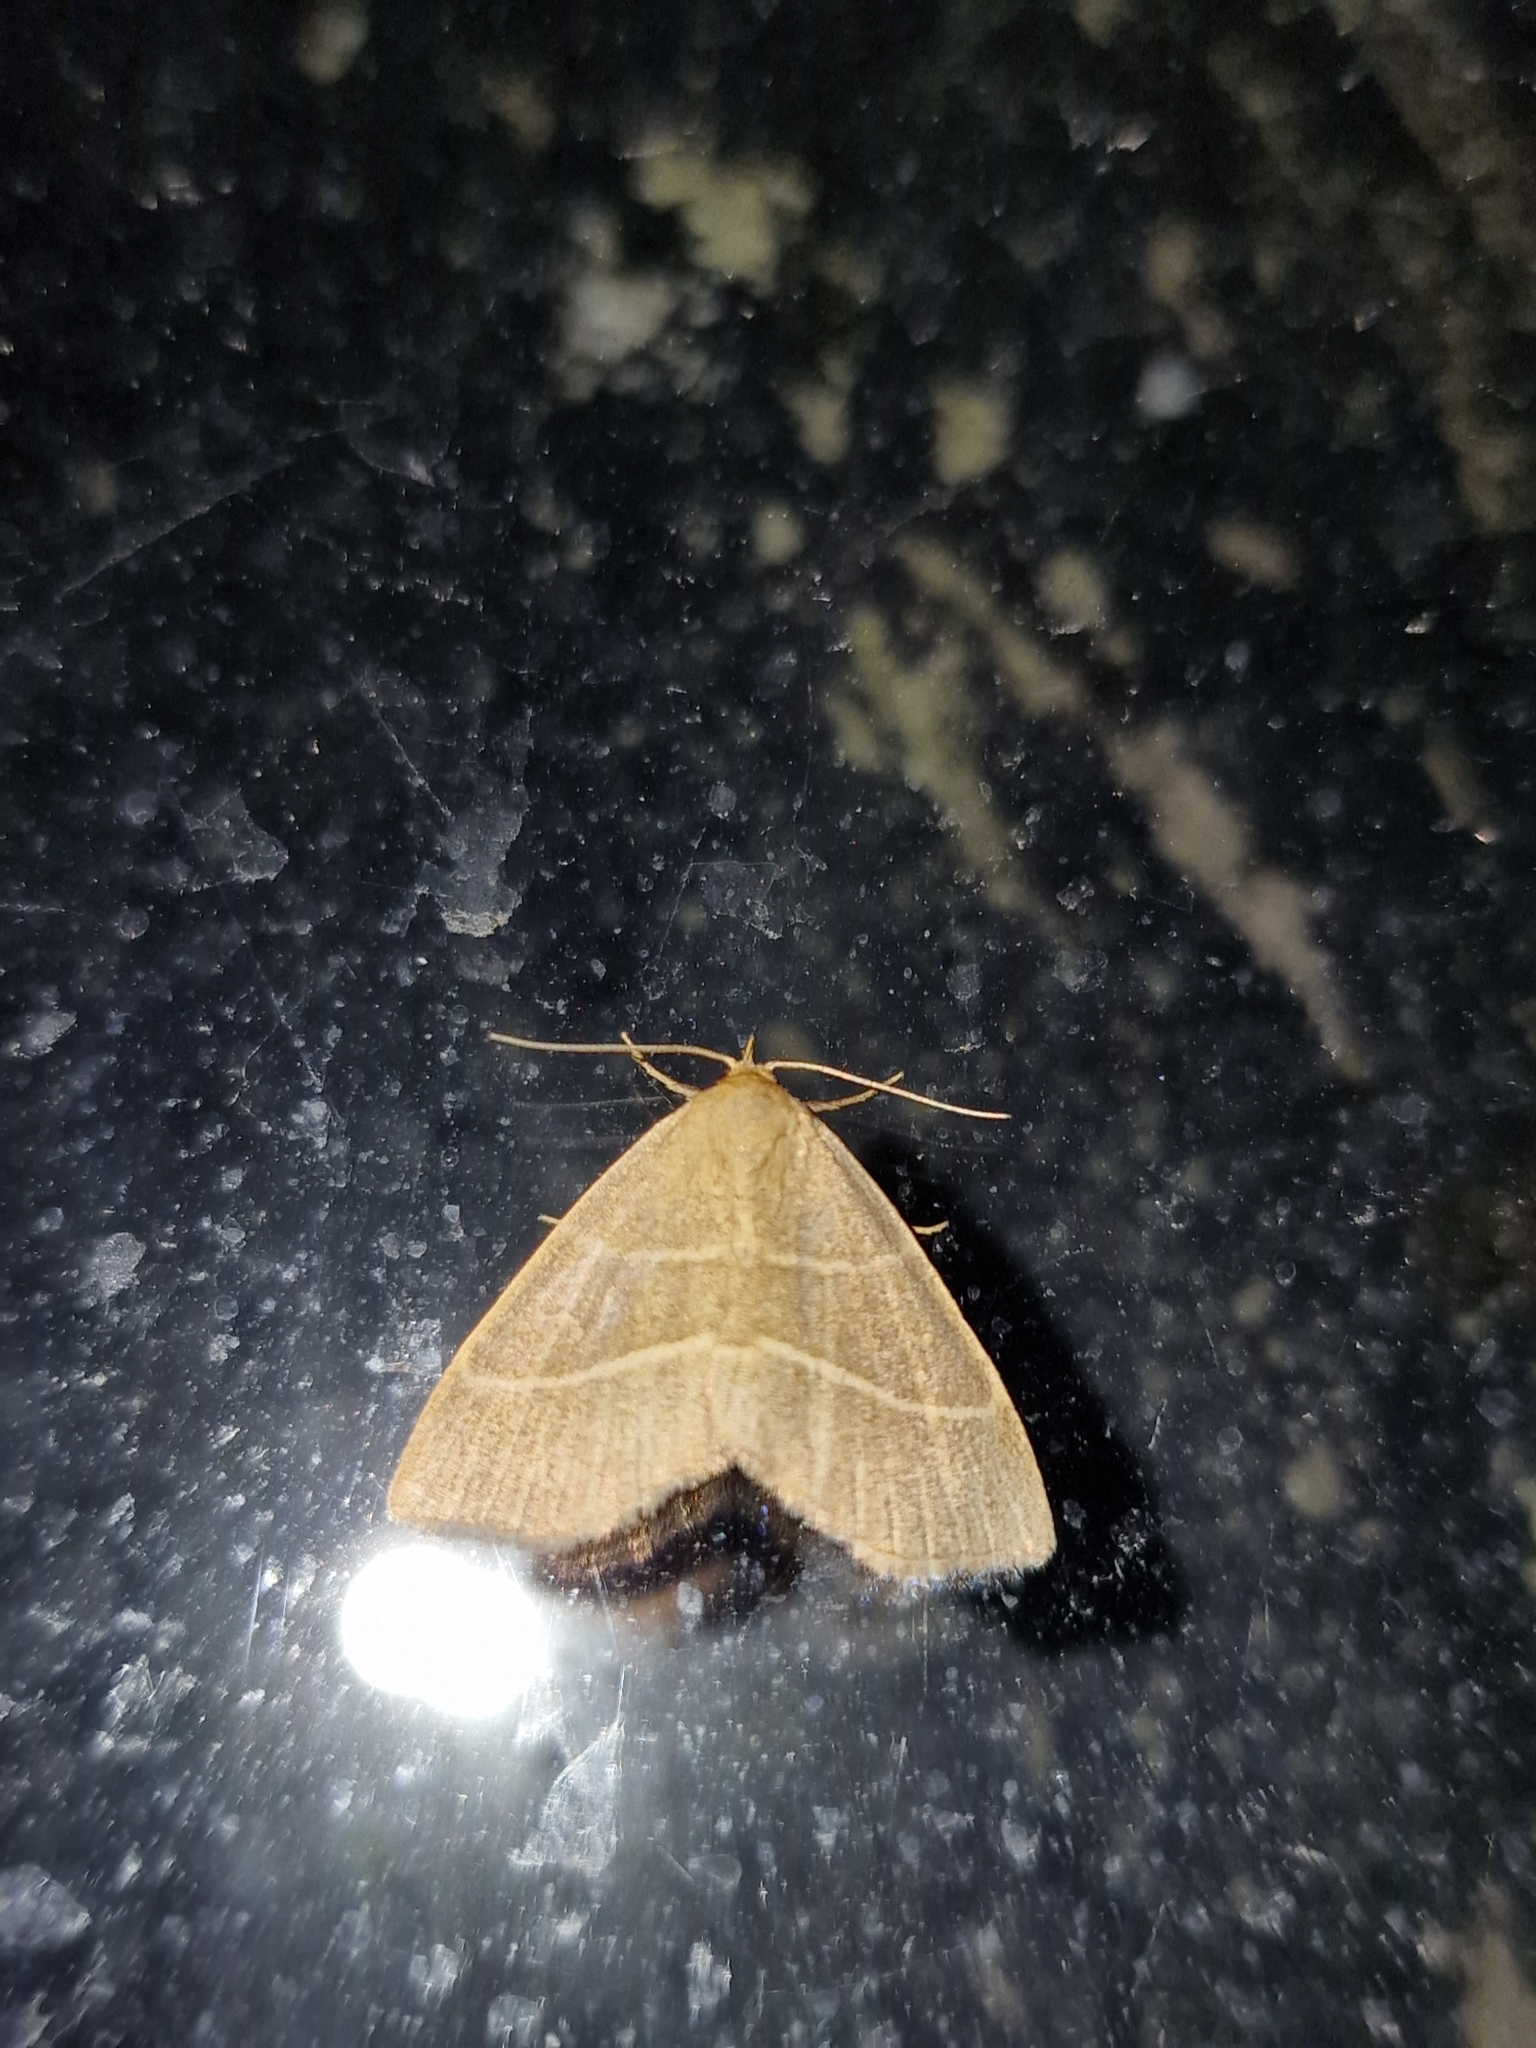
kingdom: Animalia
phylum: Arthropoda
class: Insecta
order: Lepidoptera
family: Erebidae
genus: Trisateles
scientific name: Trisateles emortualis
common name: Olive crescent
